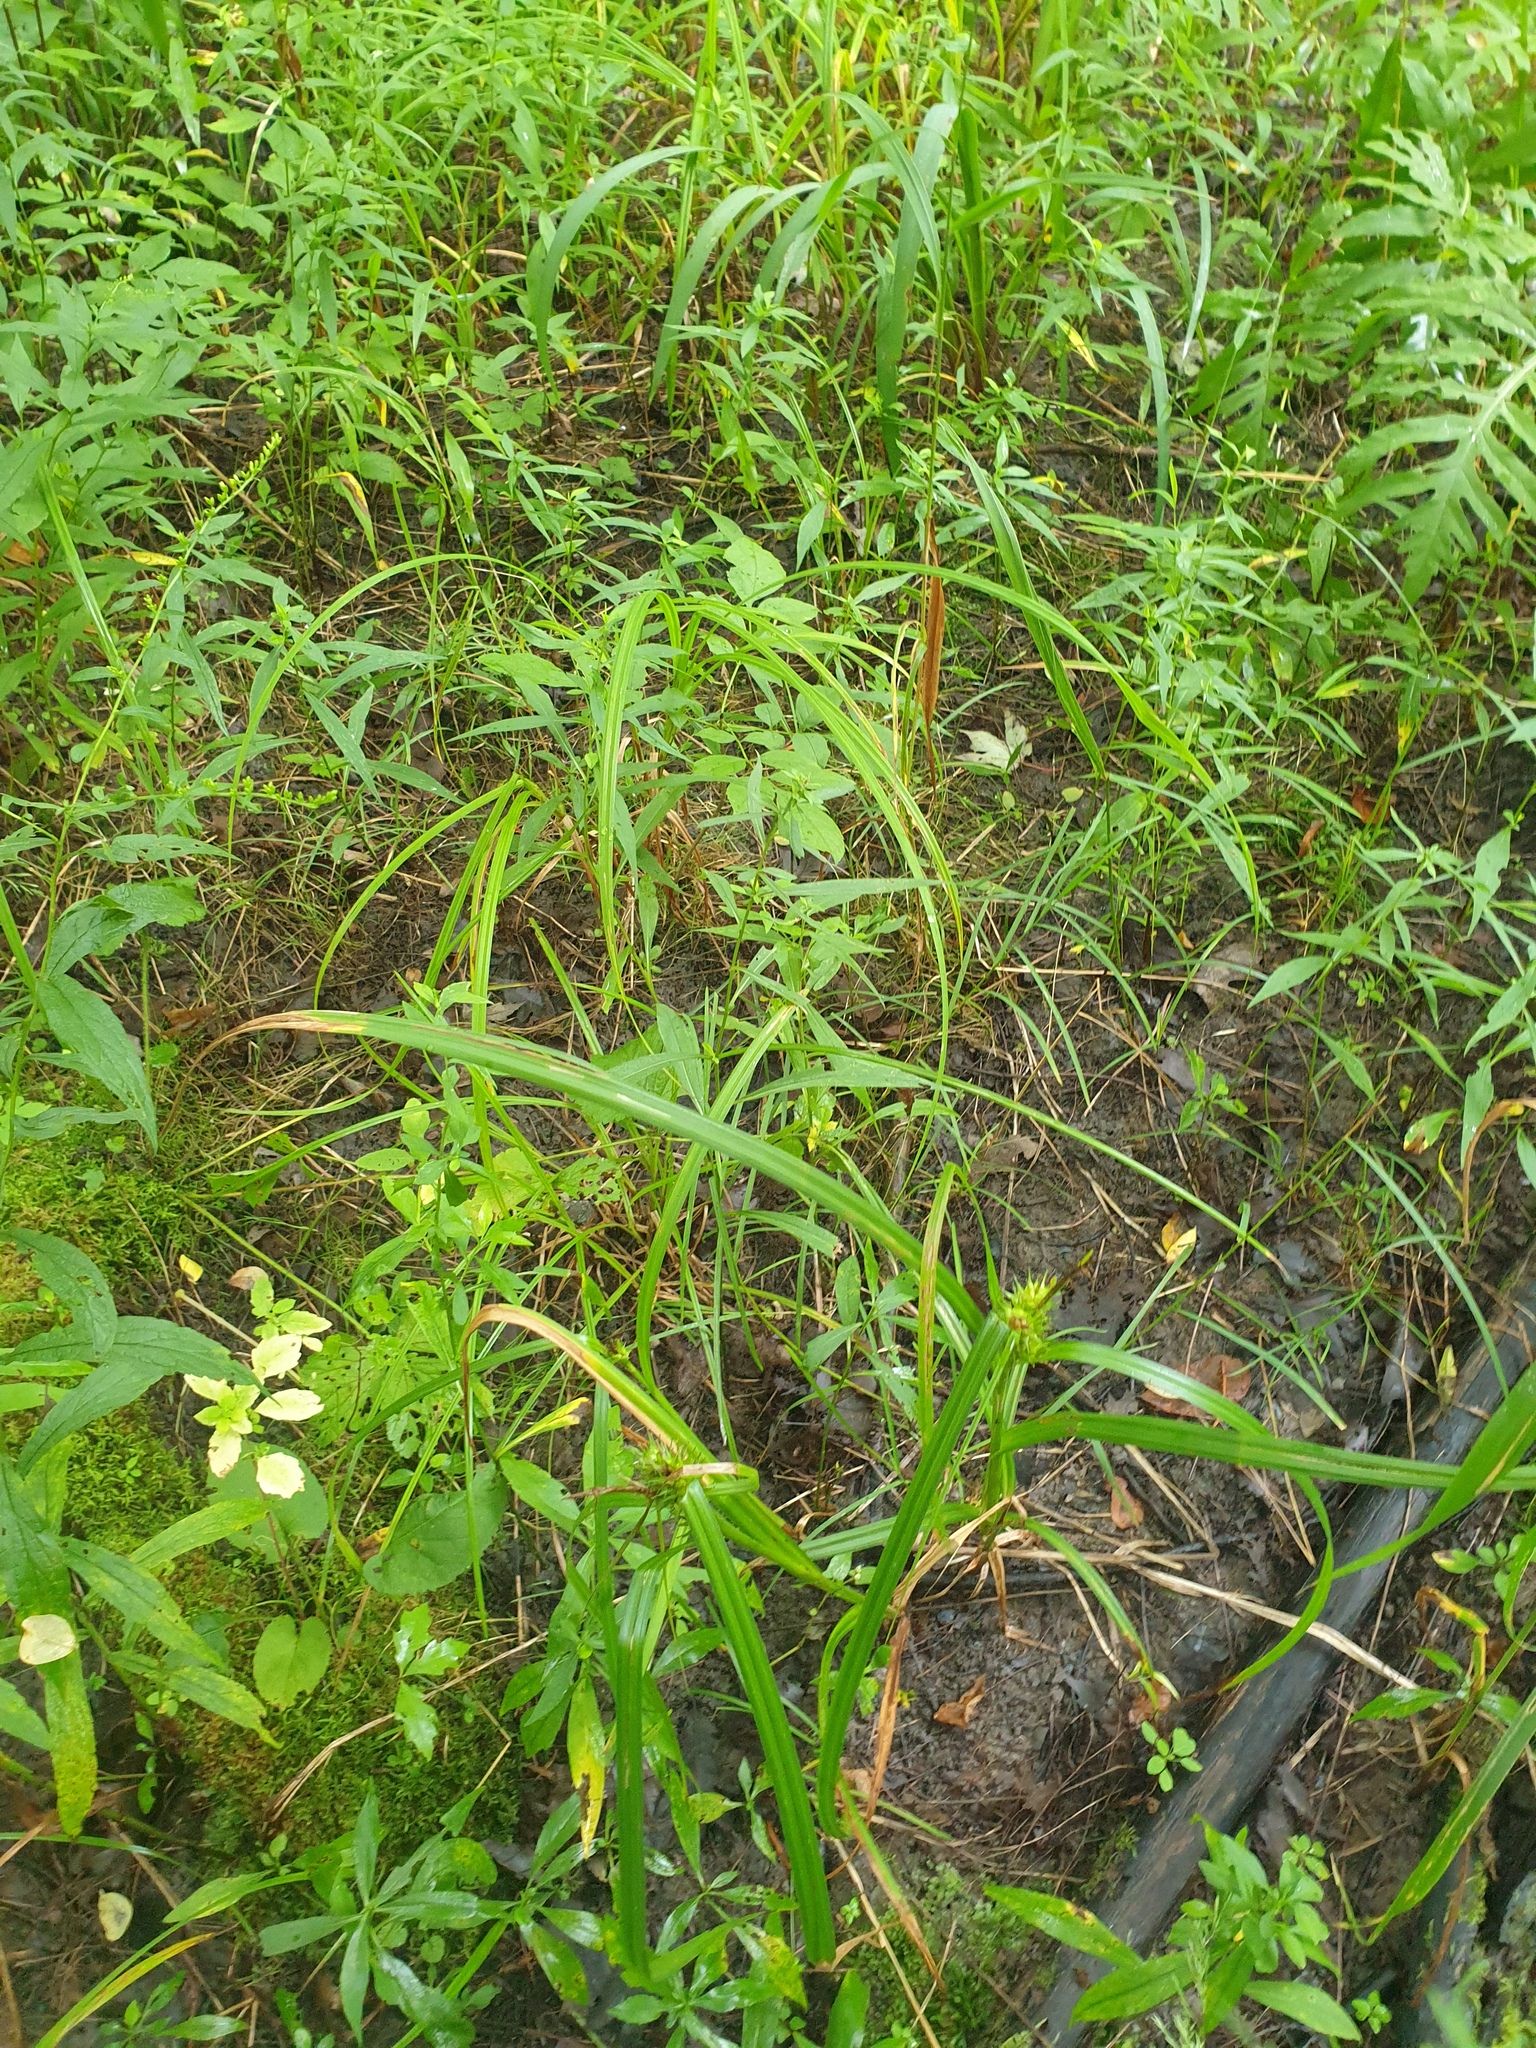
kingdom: Plantae
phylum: Tracheophyta
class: Liliopsida
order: Poales
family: Cyperaceae
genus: Carex
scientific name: Carex lupulina
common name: Hop sedge
